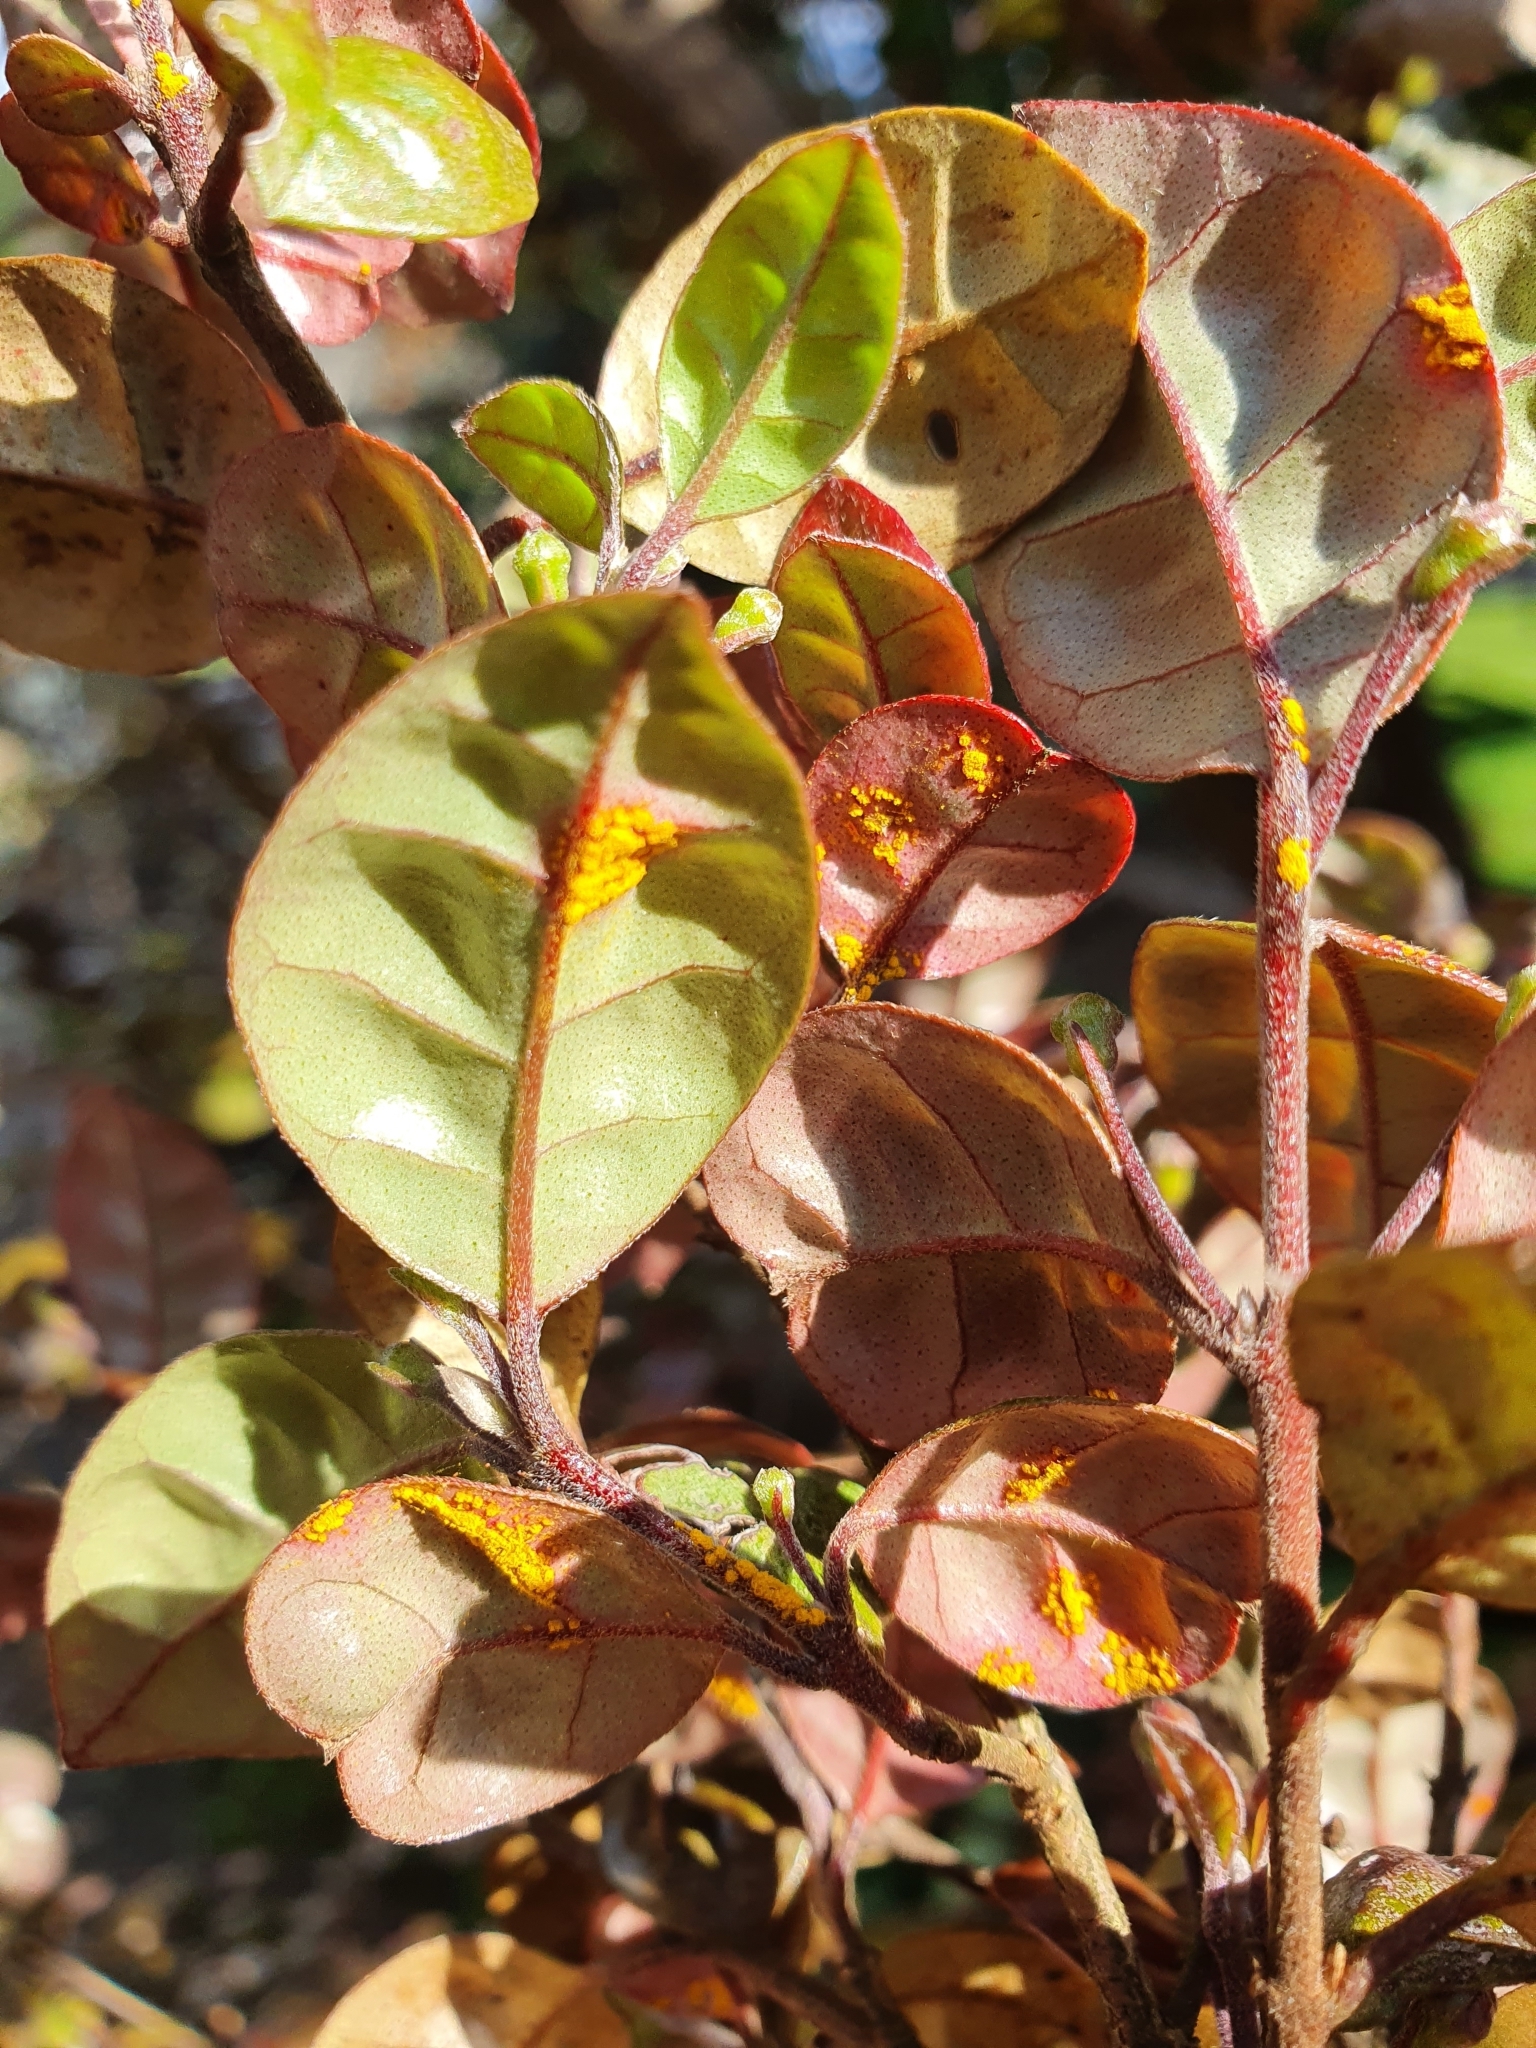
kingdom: Fungi
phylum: Basidiomycota
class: Pucciniomycetes
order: Pucciniales
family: Sphaerophragmiaceae
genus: Austropuccinia
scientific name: Austropuccinia psidii
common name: Myrtle rust
